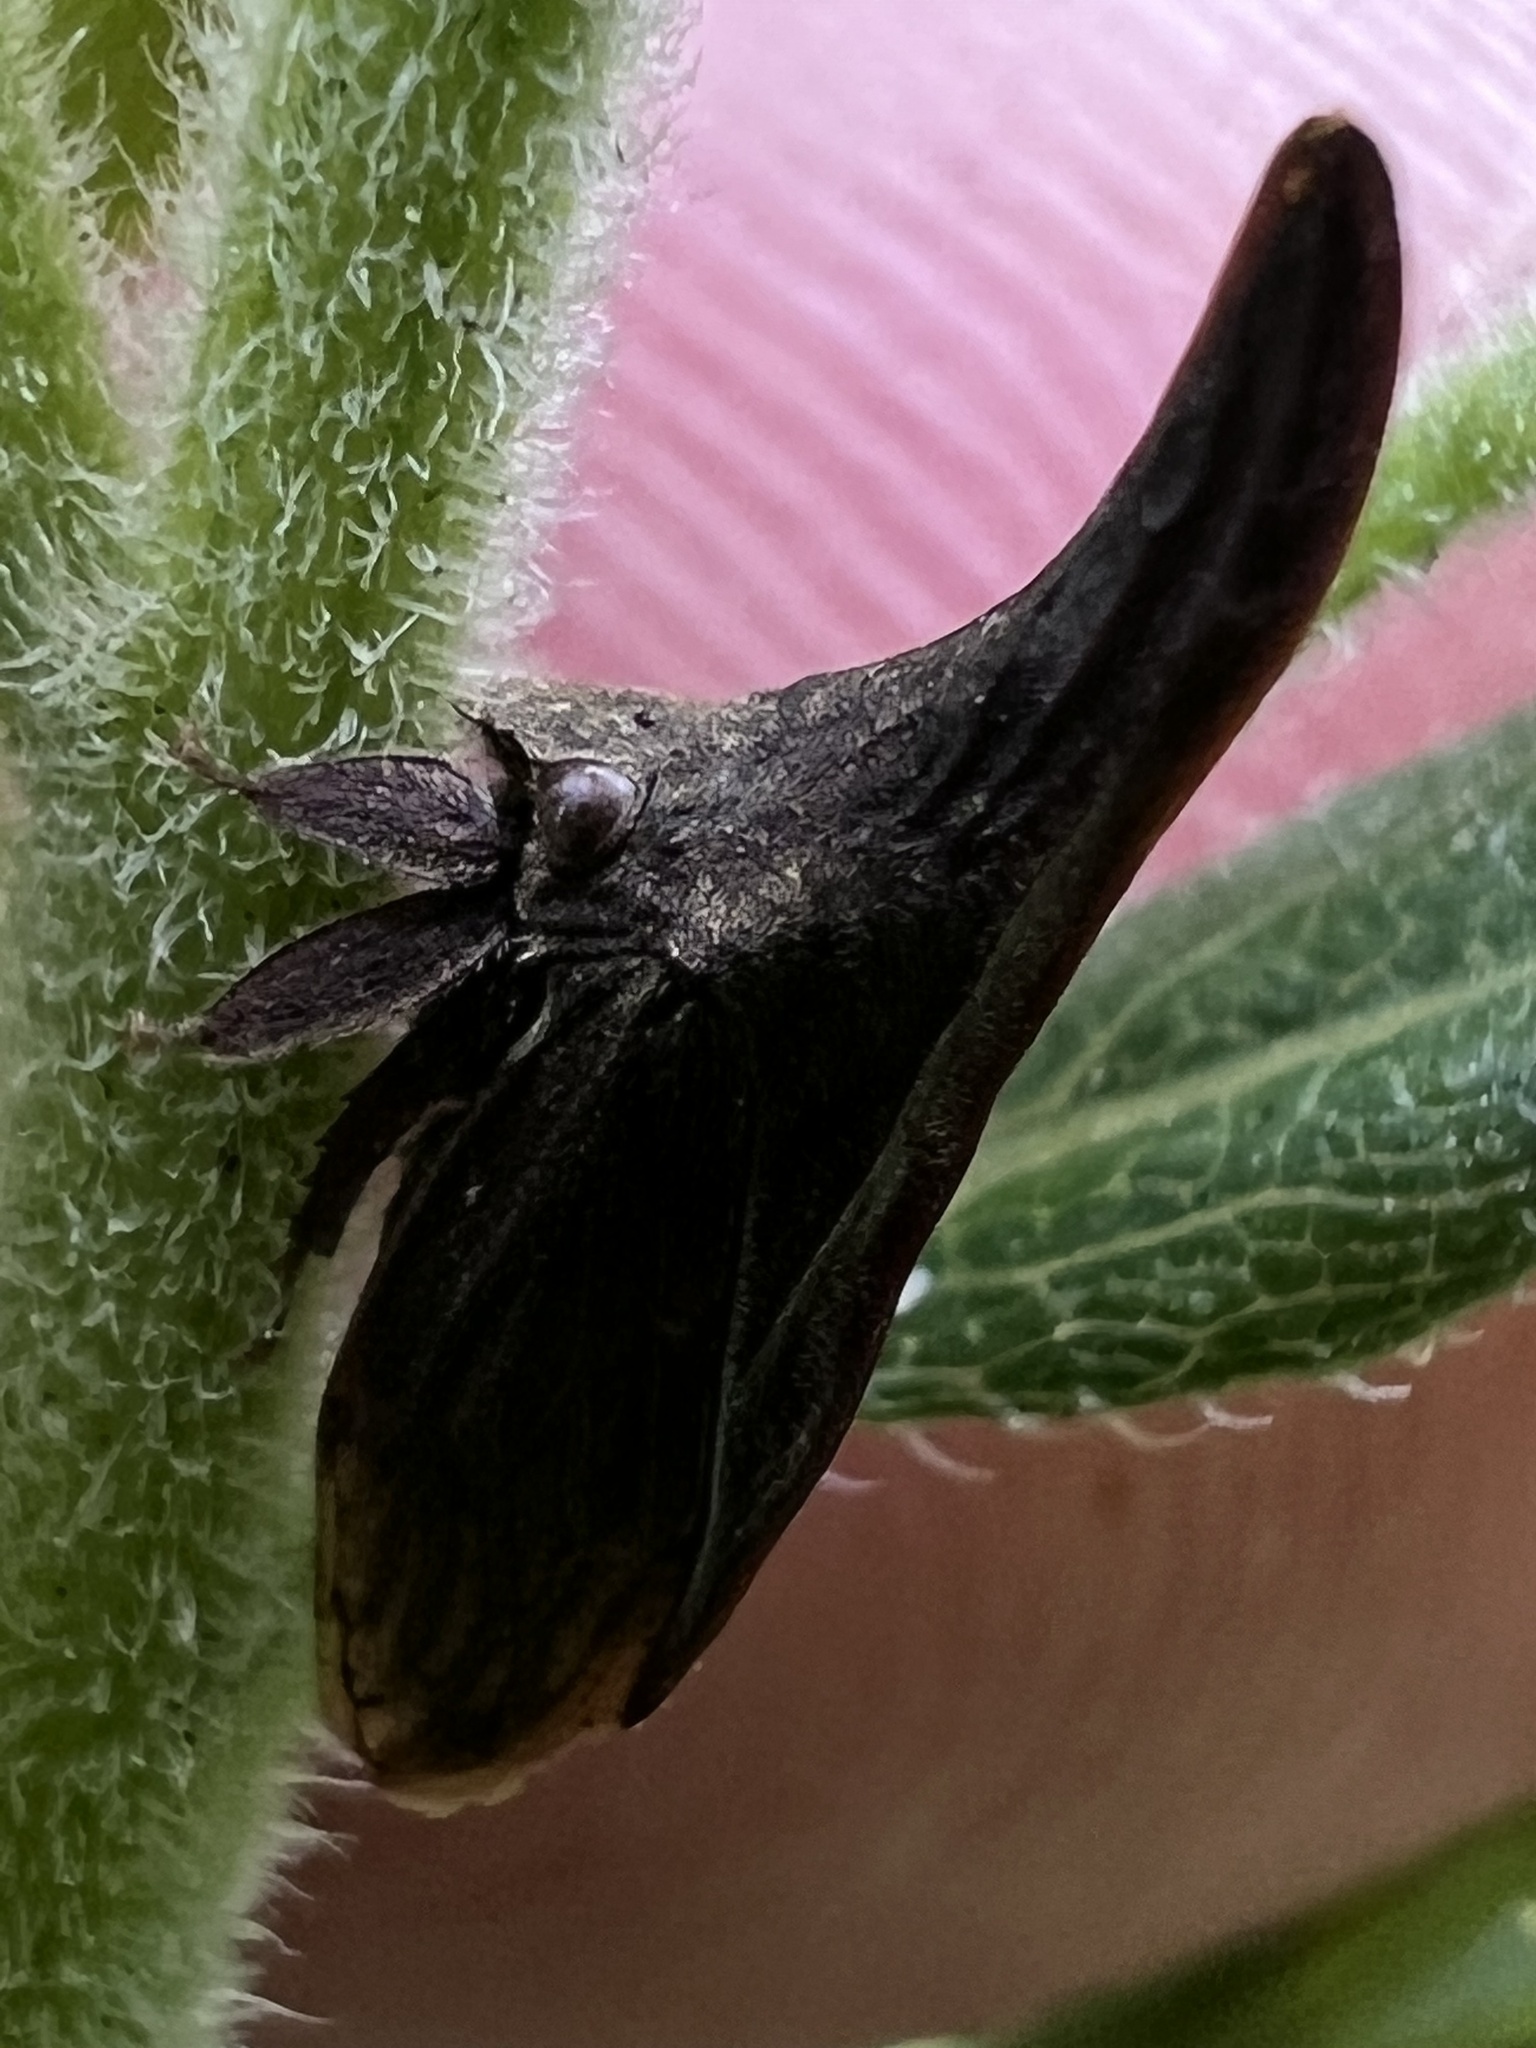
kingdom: Animalia
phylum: Arthropoda
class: Insecta
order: Hemiptera
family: Membracidae
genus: Enchenopa
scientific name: Enchenopa latipes
